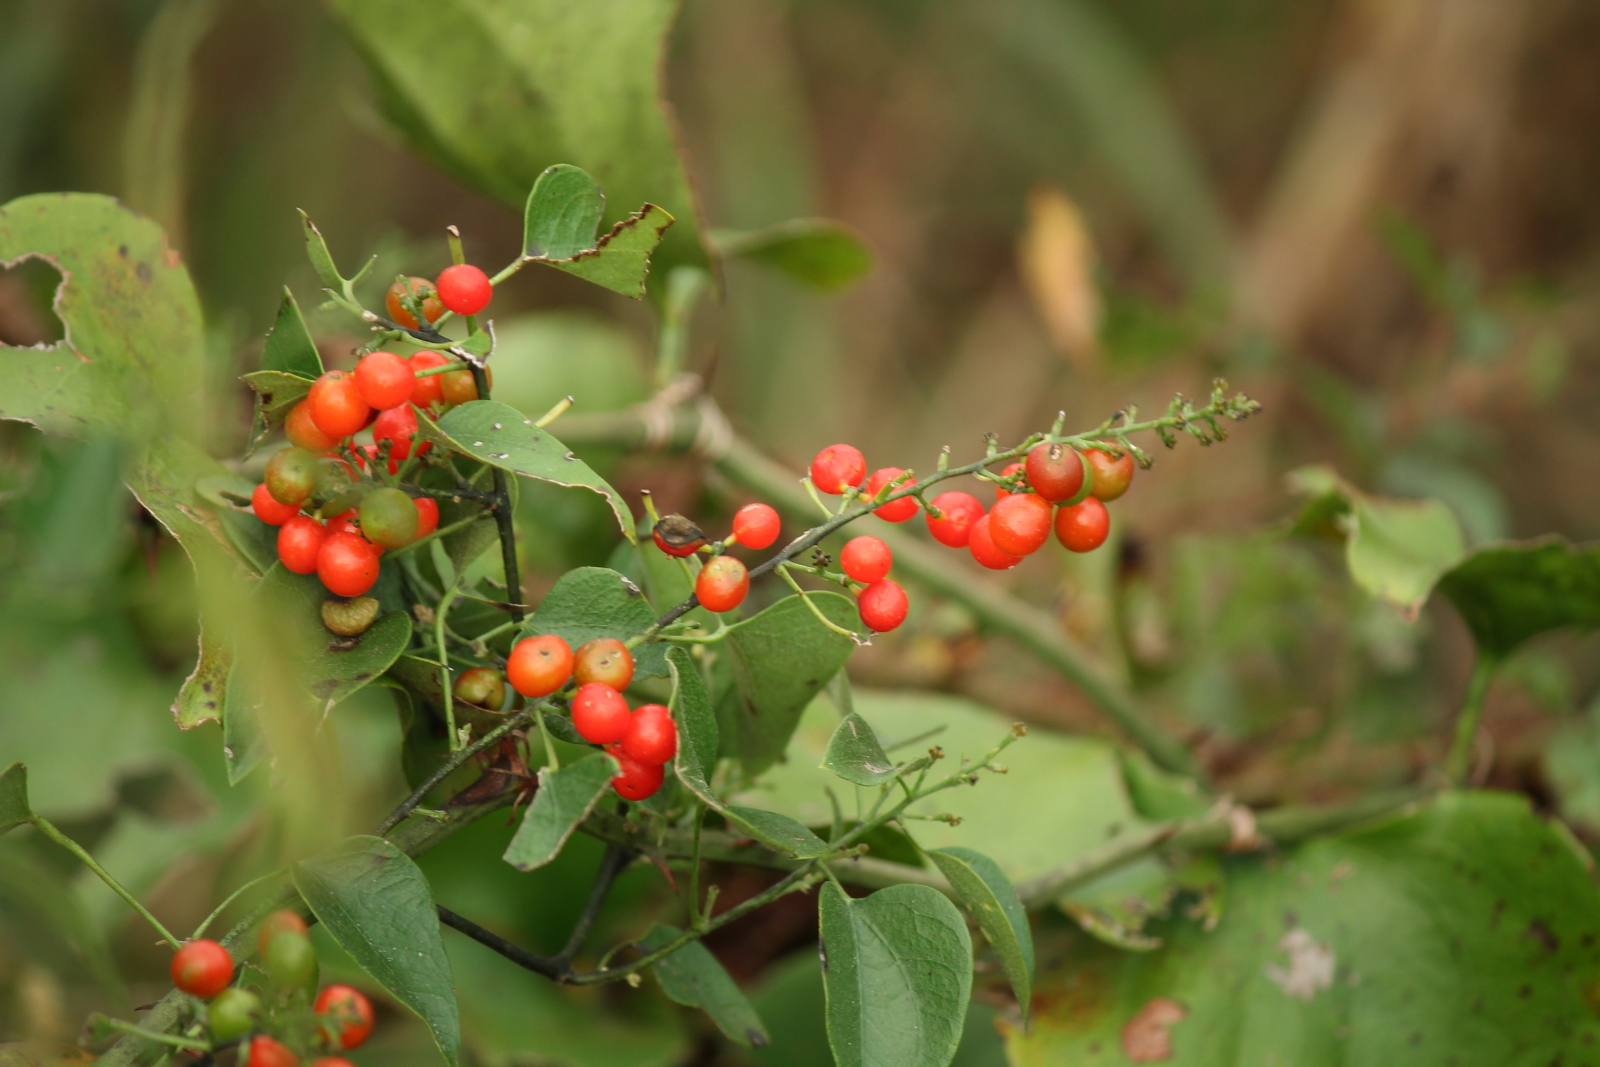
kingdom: Plantae
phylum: Tracheophyta
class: Magnoliopsida
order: Ranunculales
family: Menispermaceae
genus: Cocculus
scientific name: Cocculus carolinus
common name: Carolina moonseed
